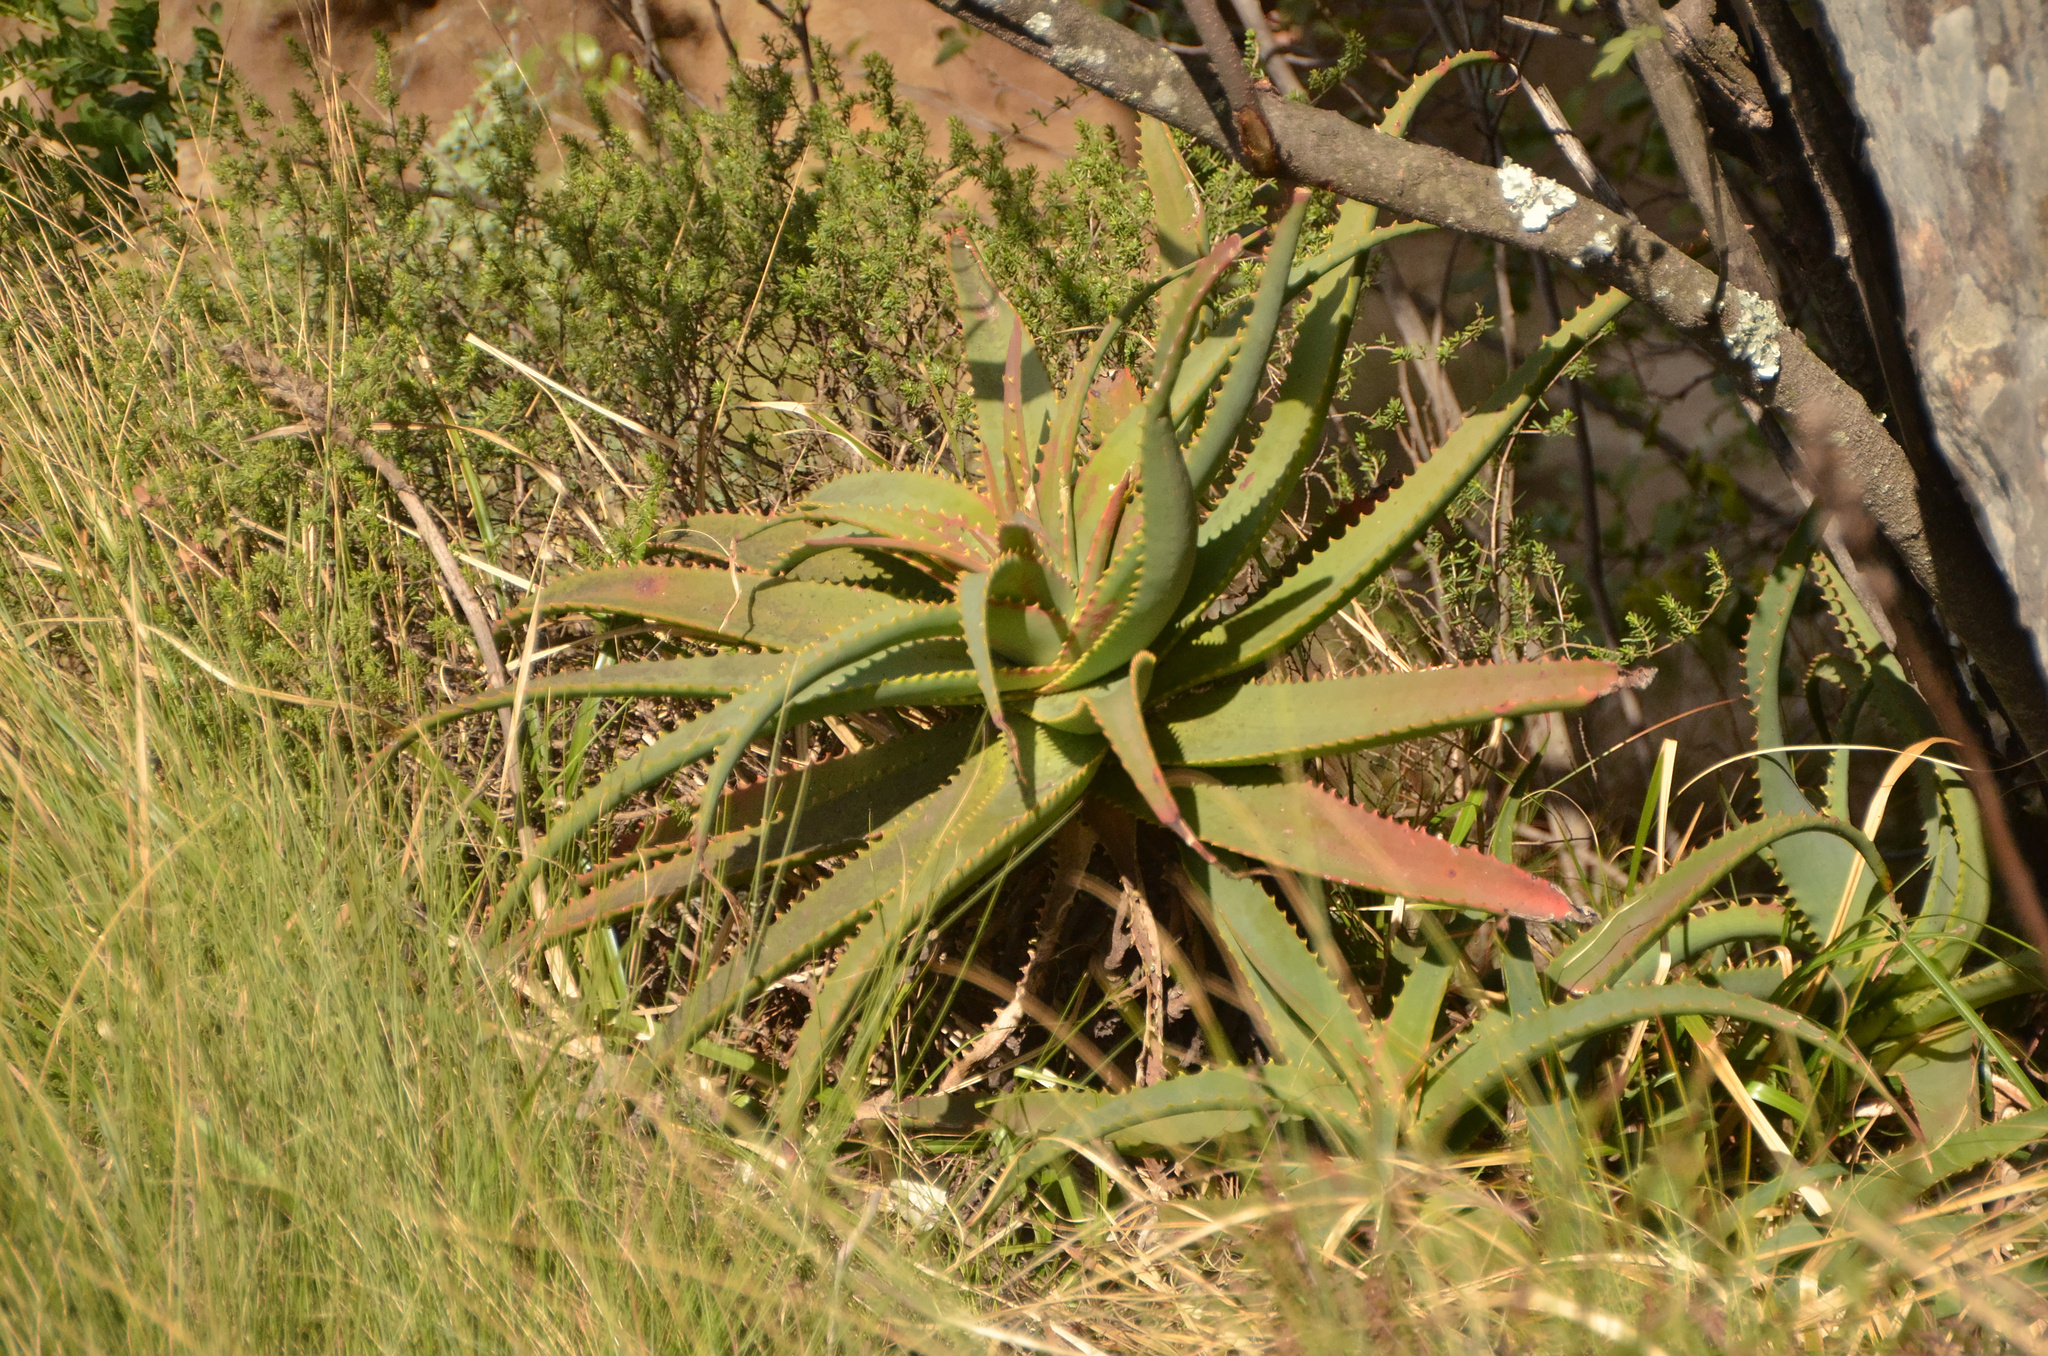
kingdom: Plantae
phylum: Tracheophyta
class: Liliopsida
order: Asparagales
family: Asphodelaceae
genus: Aloe
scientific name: Aloe arborescens
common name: Candelabra aloe
